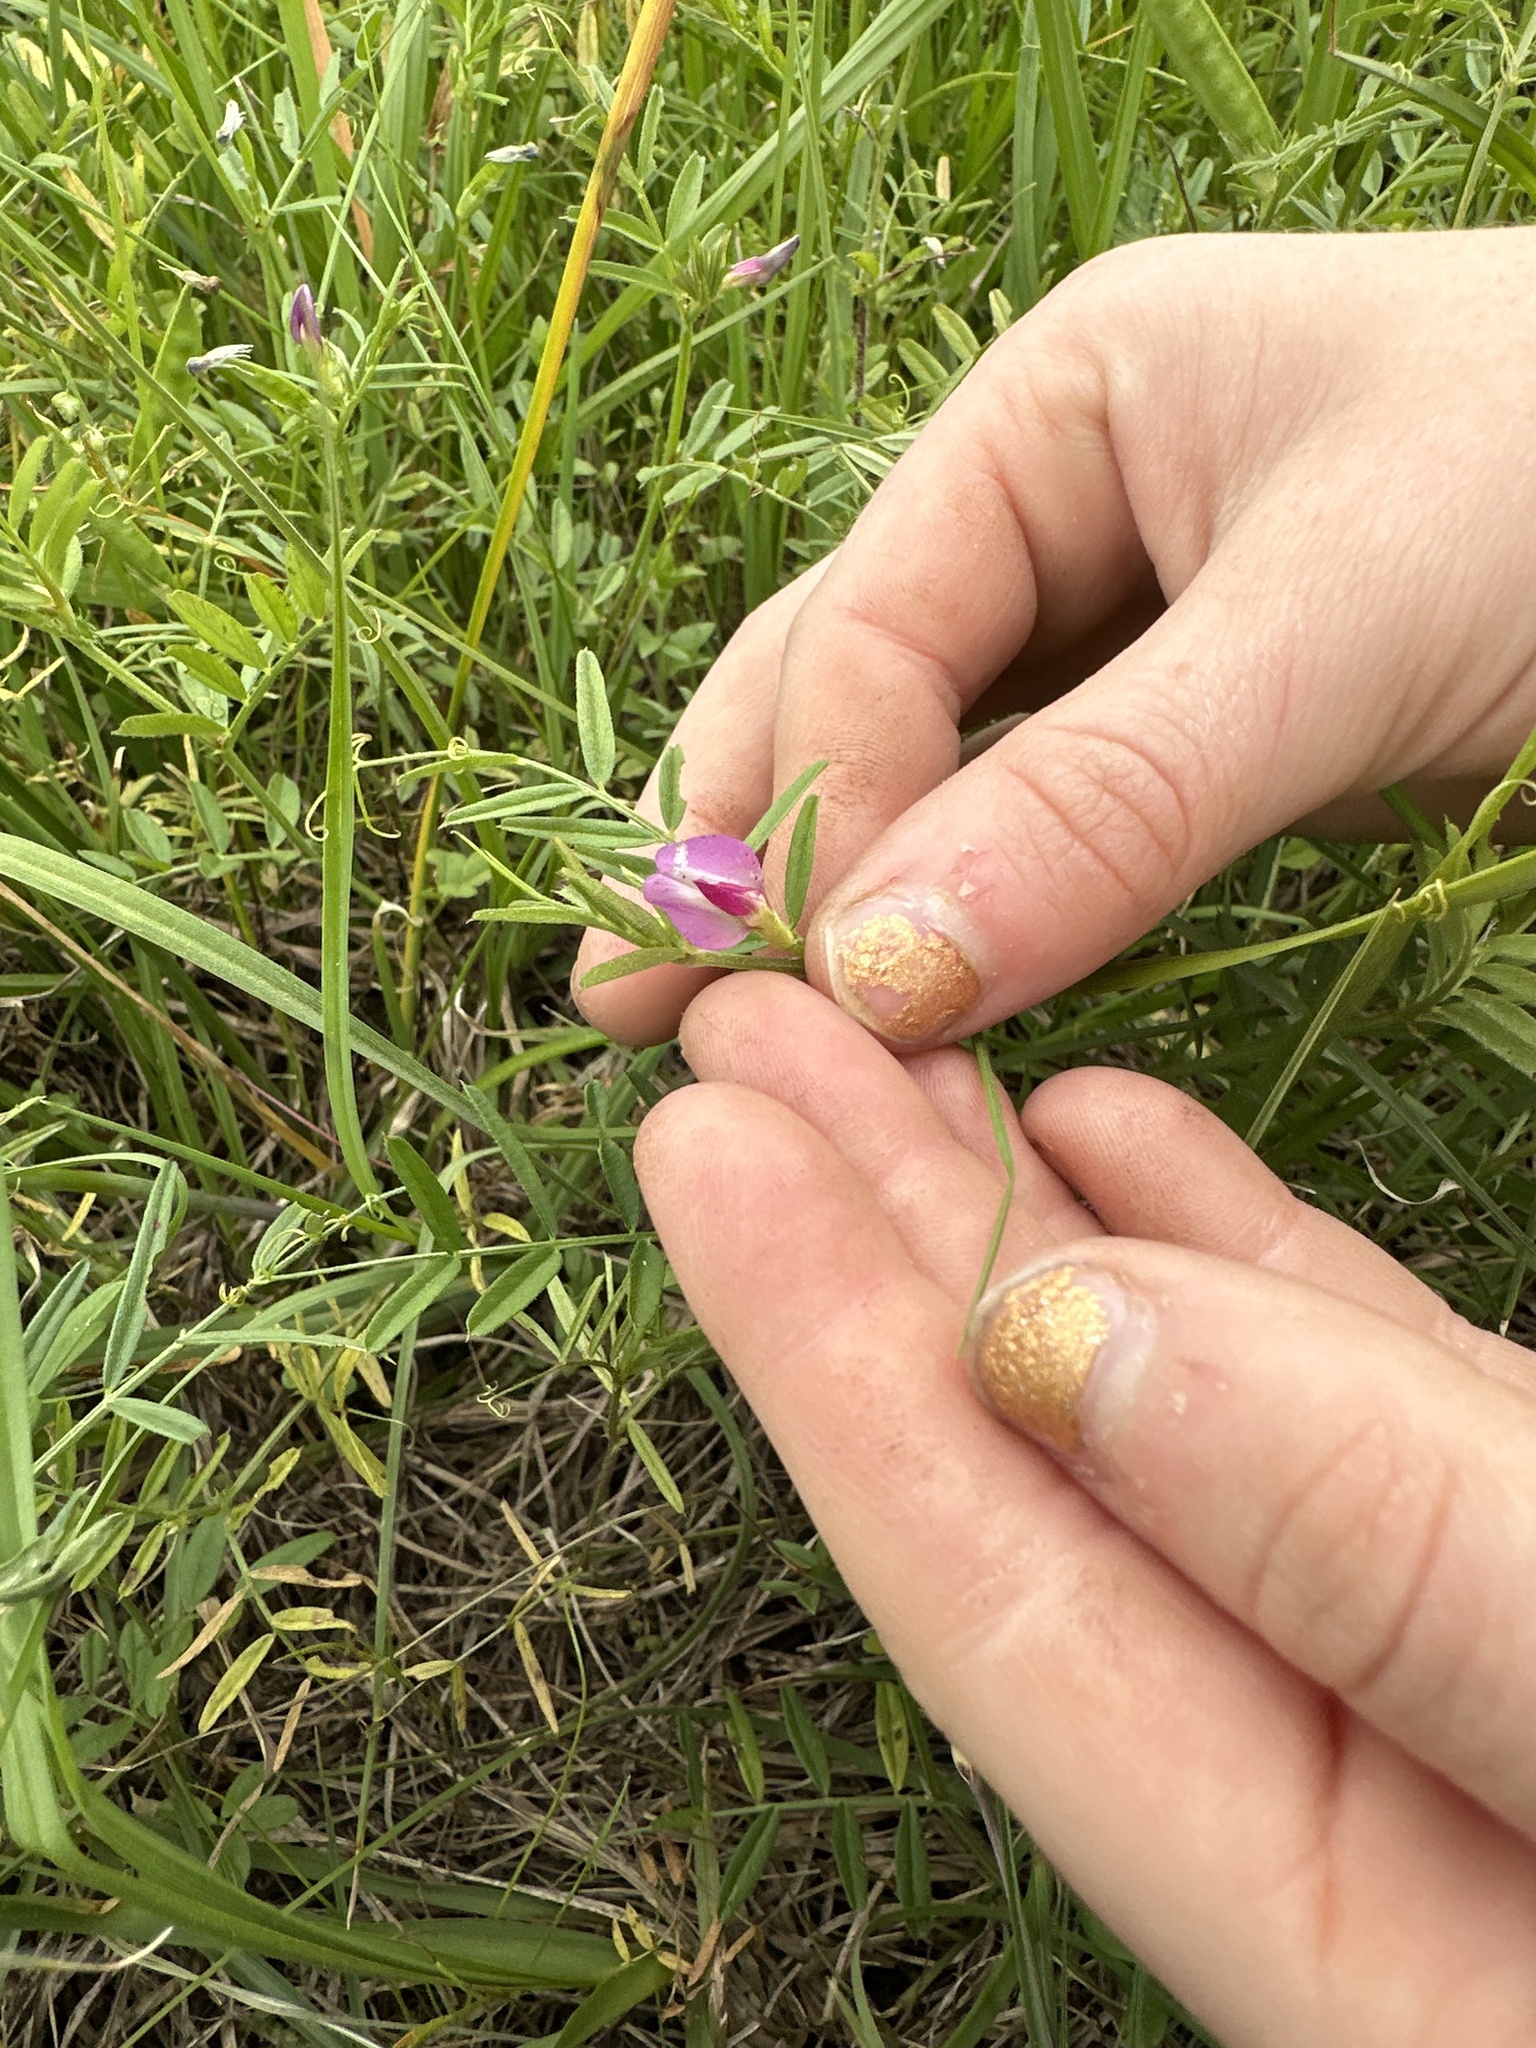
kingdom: Plantae
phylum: Tracheophyta
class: Magnoliopsida
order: Fabales
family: Fabaceae
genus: Vicia
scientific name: Vicia sativa
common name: Garden vetch
